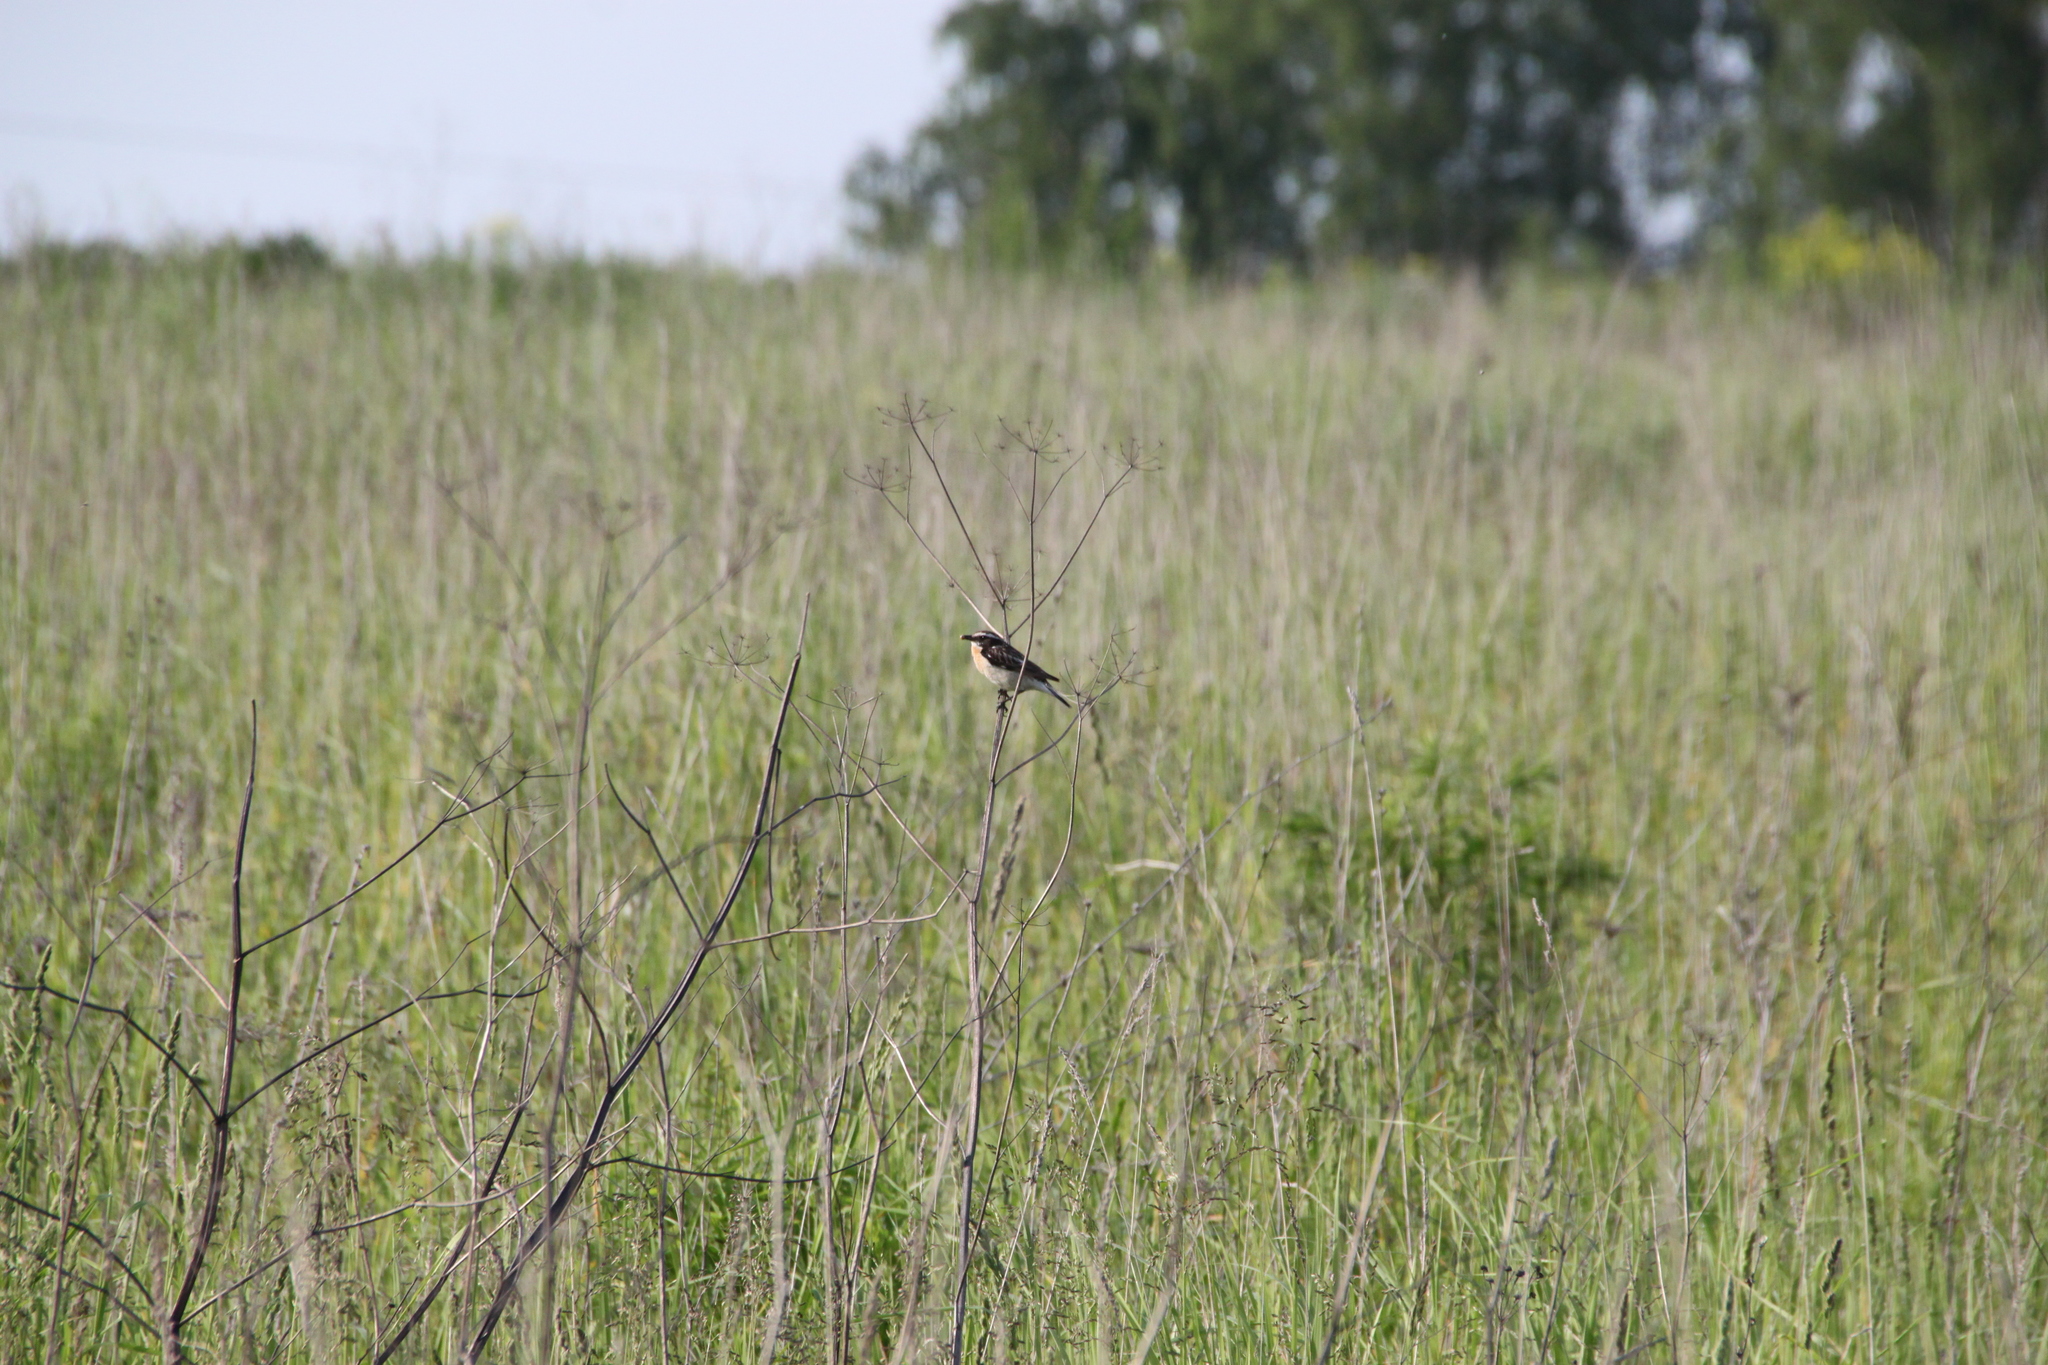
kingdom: Animalia
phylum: Chordata
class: Aves
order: Passeriformes
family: Muscicapidae
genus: Saxicola
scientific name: Saxicola rubetra
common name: Whinchat
